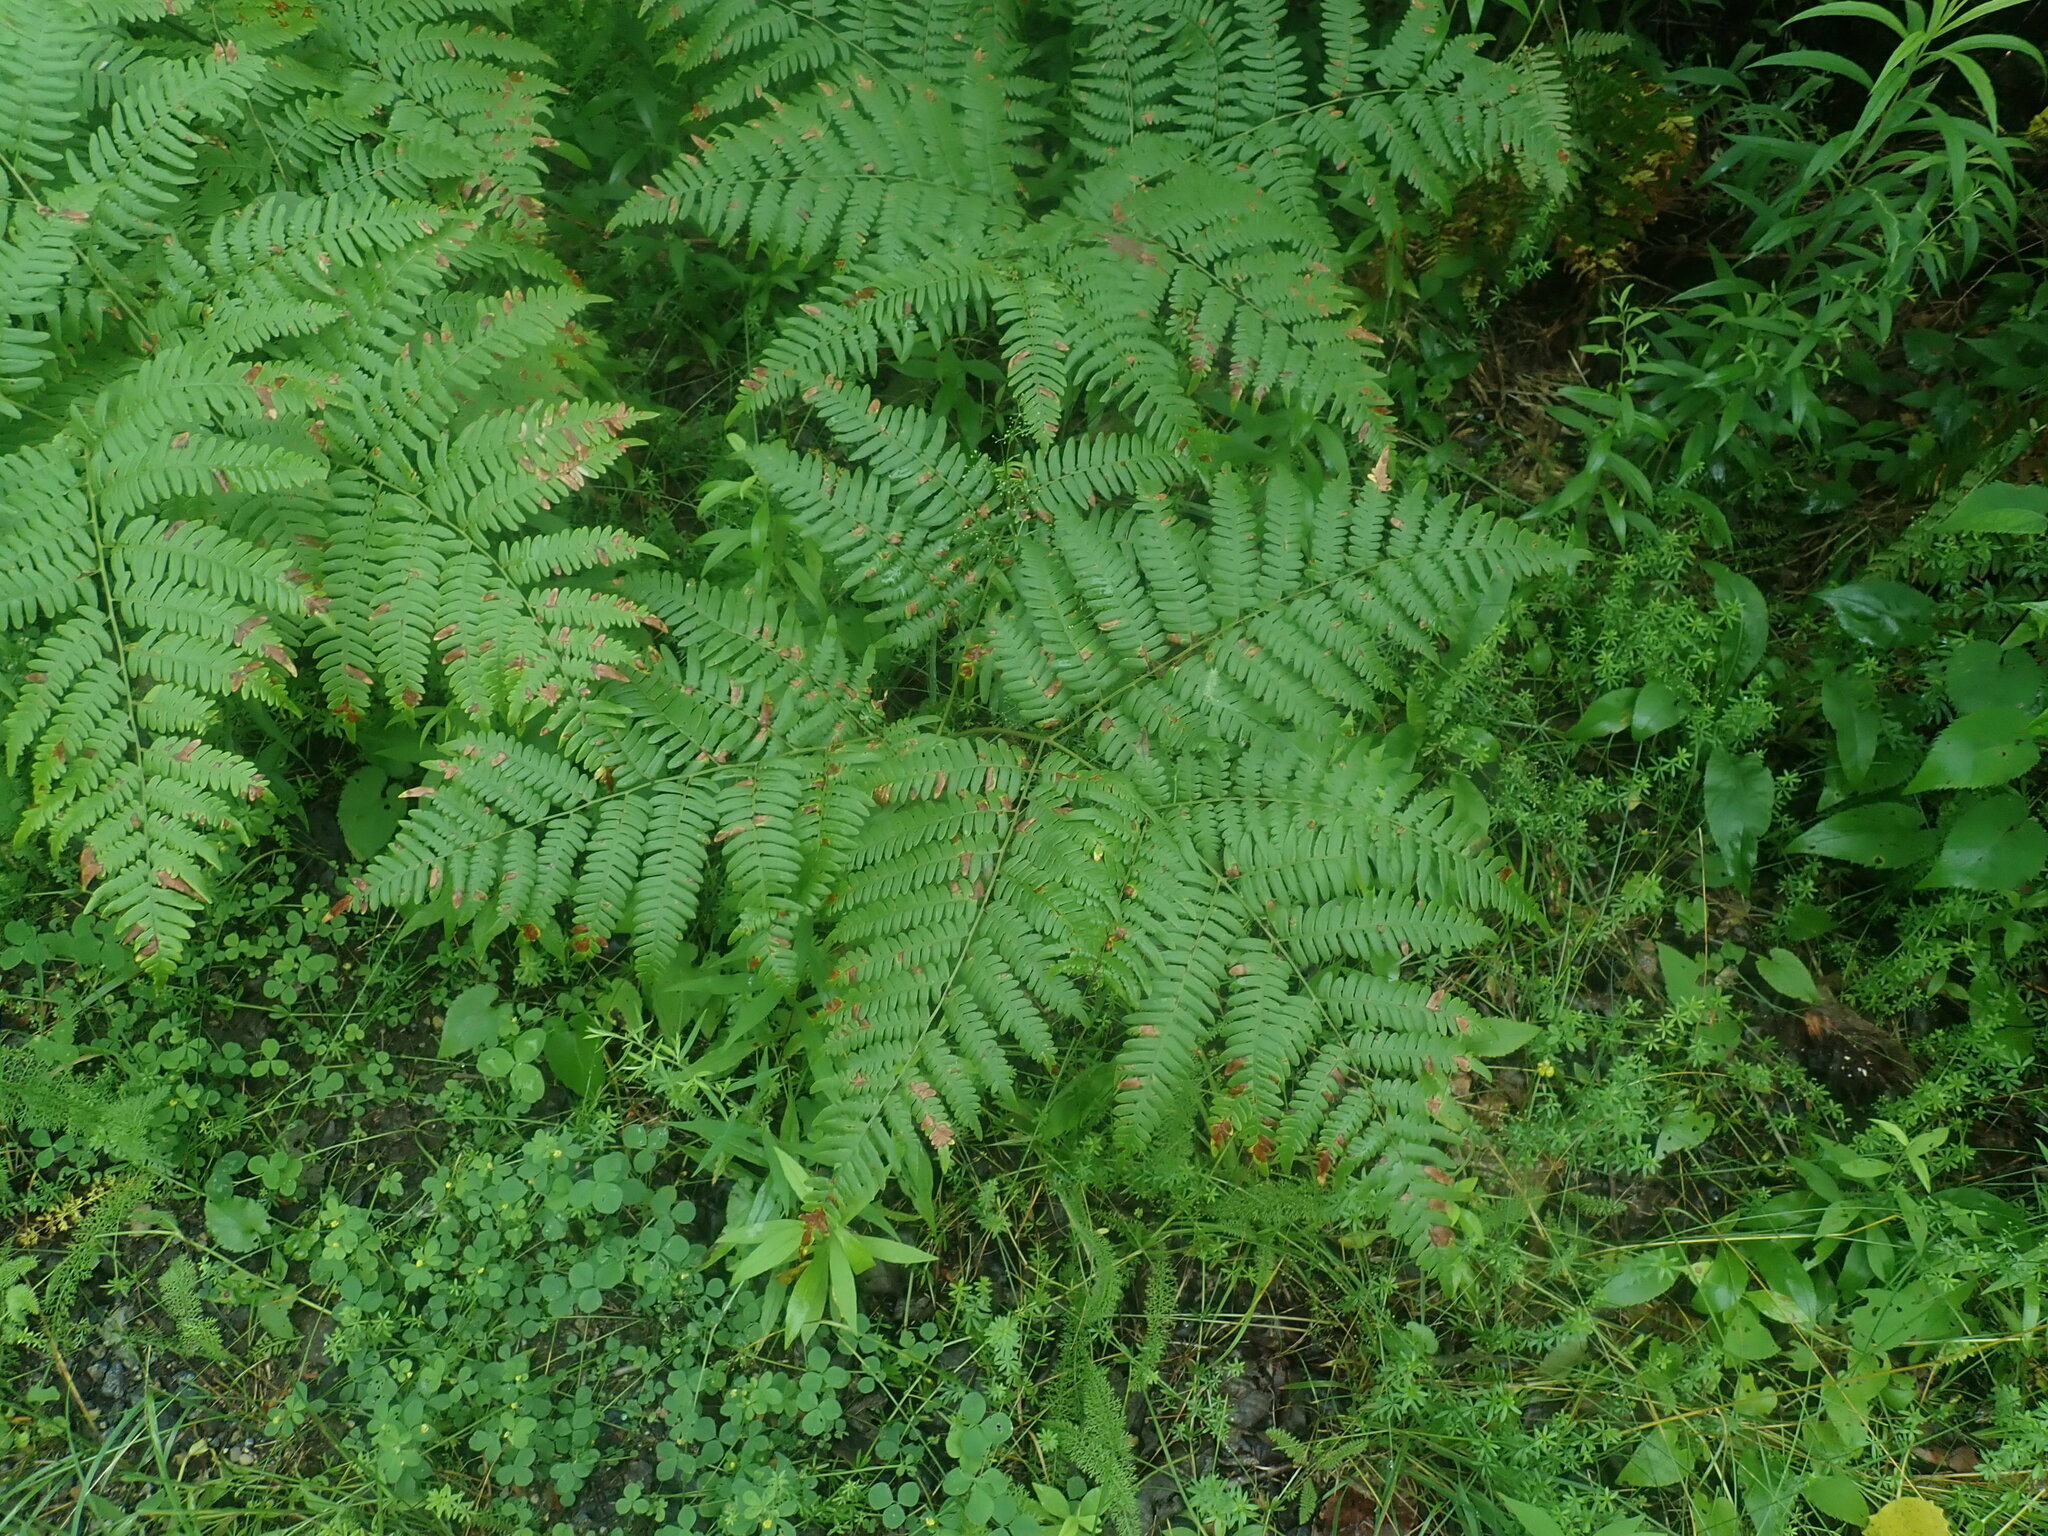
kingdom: Plantae
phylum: Tracheophyta
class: Polypodiopsida
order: Polypodiales
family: Dennstaedtiaceae
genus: Pteridium
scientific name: Pteridium aquilinum
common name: Bracken
